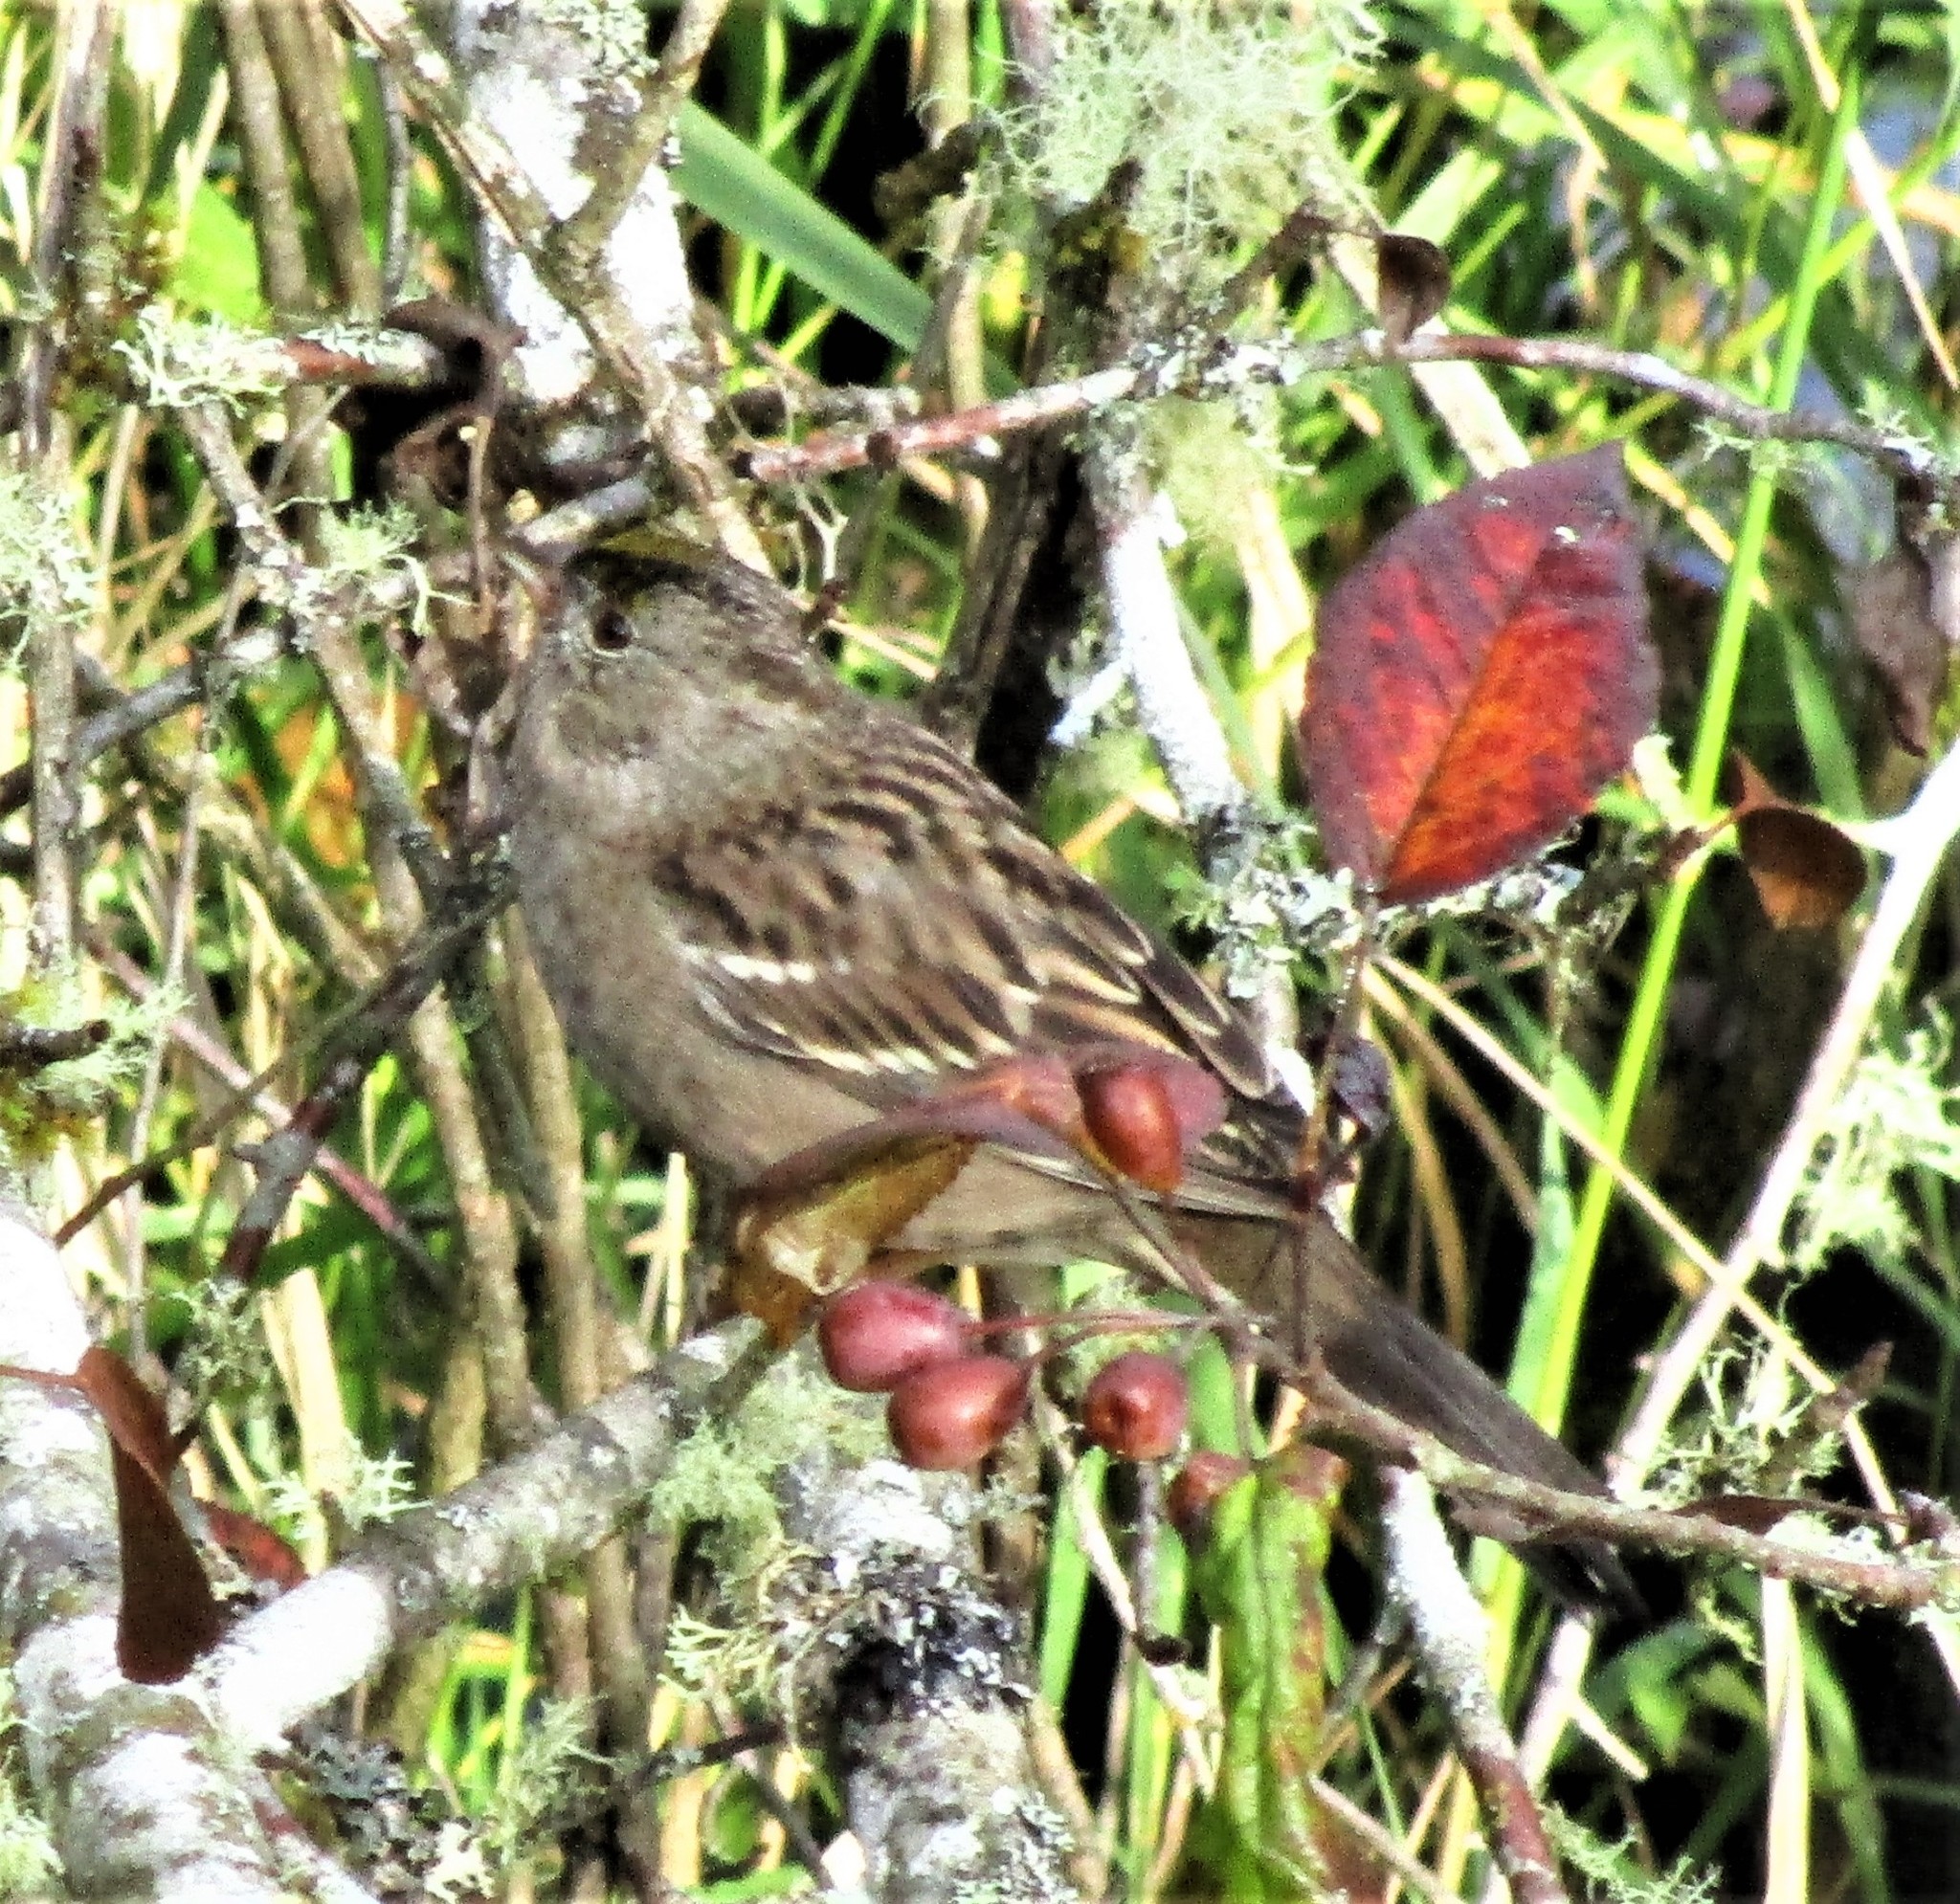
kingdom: Animalia
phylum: Chordata
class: Aves
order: Passeriformes
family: Passerellidae
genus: Zonotrichia
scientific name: Zonotrichia atricapilla
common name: Golden-crowned sparrow
